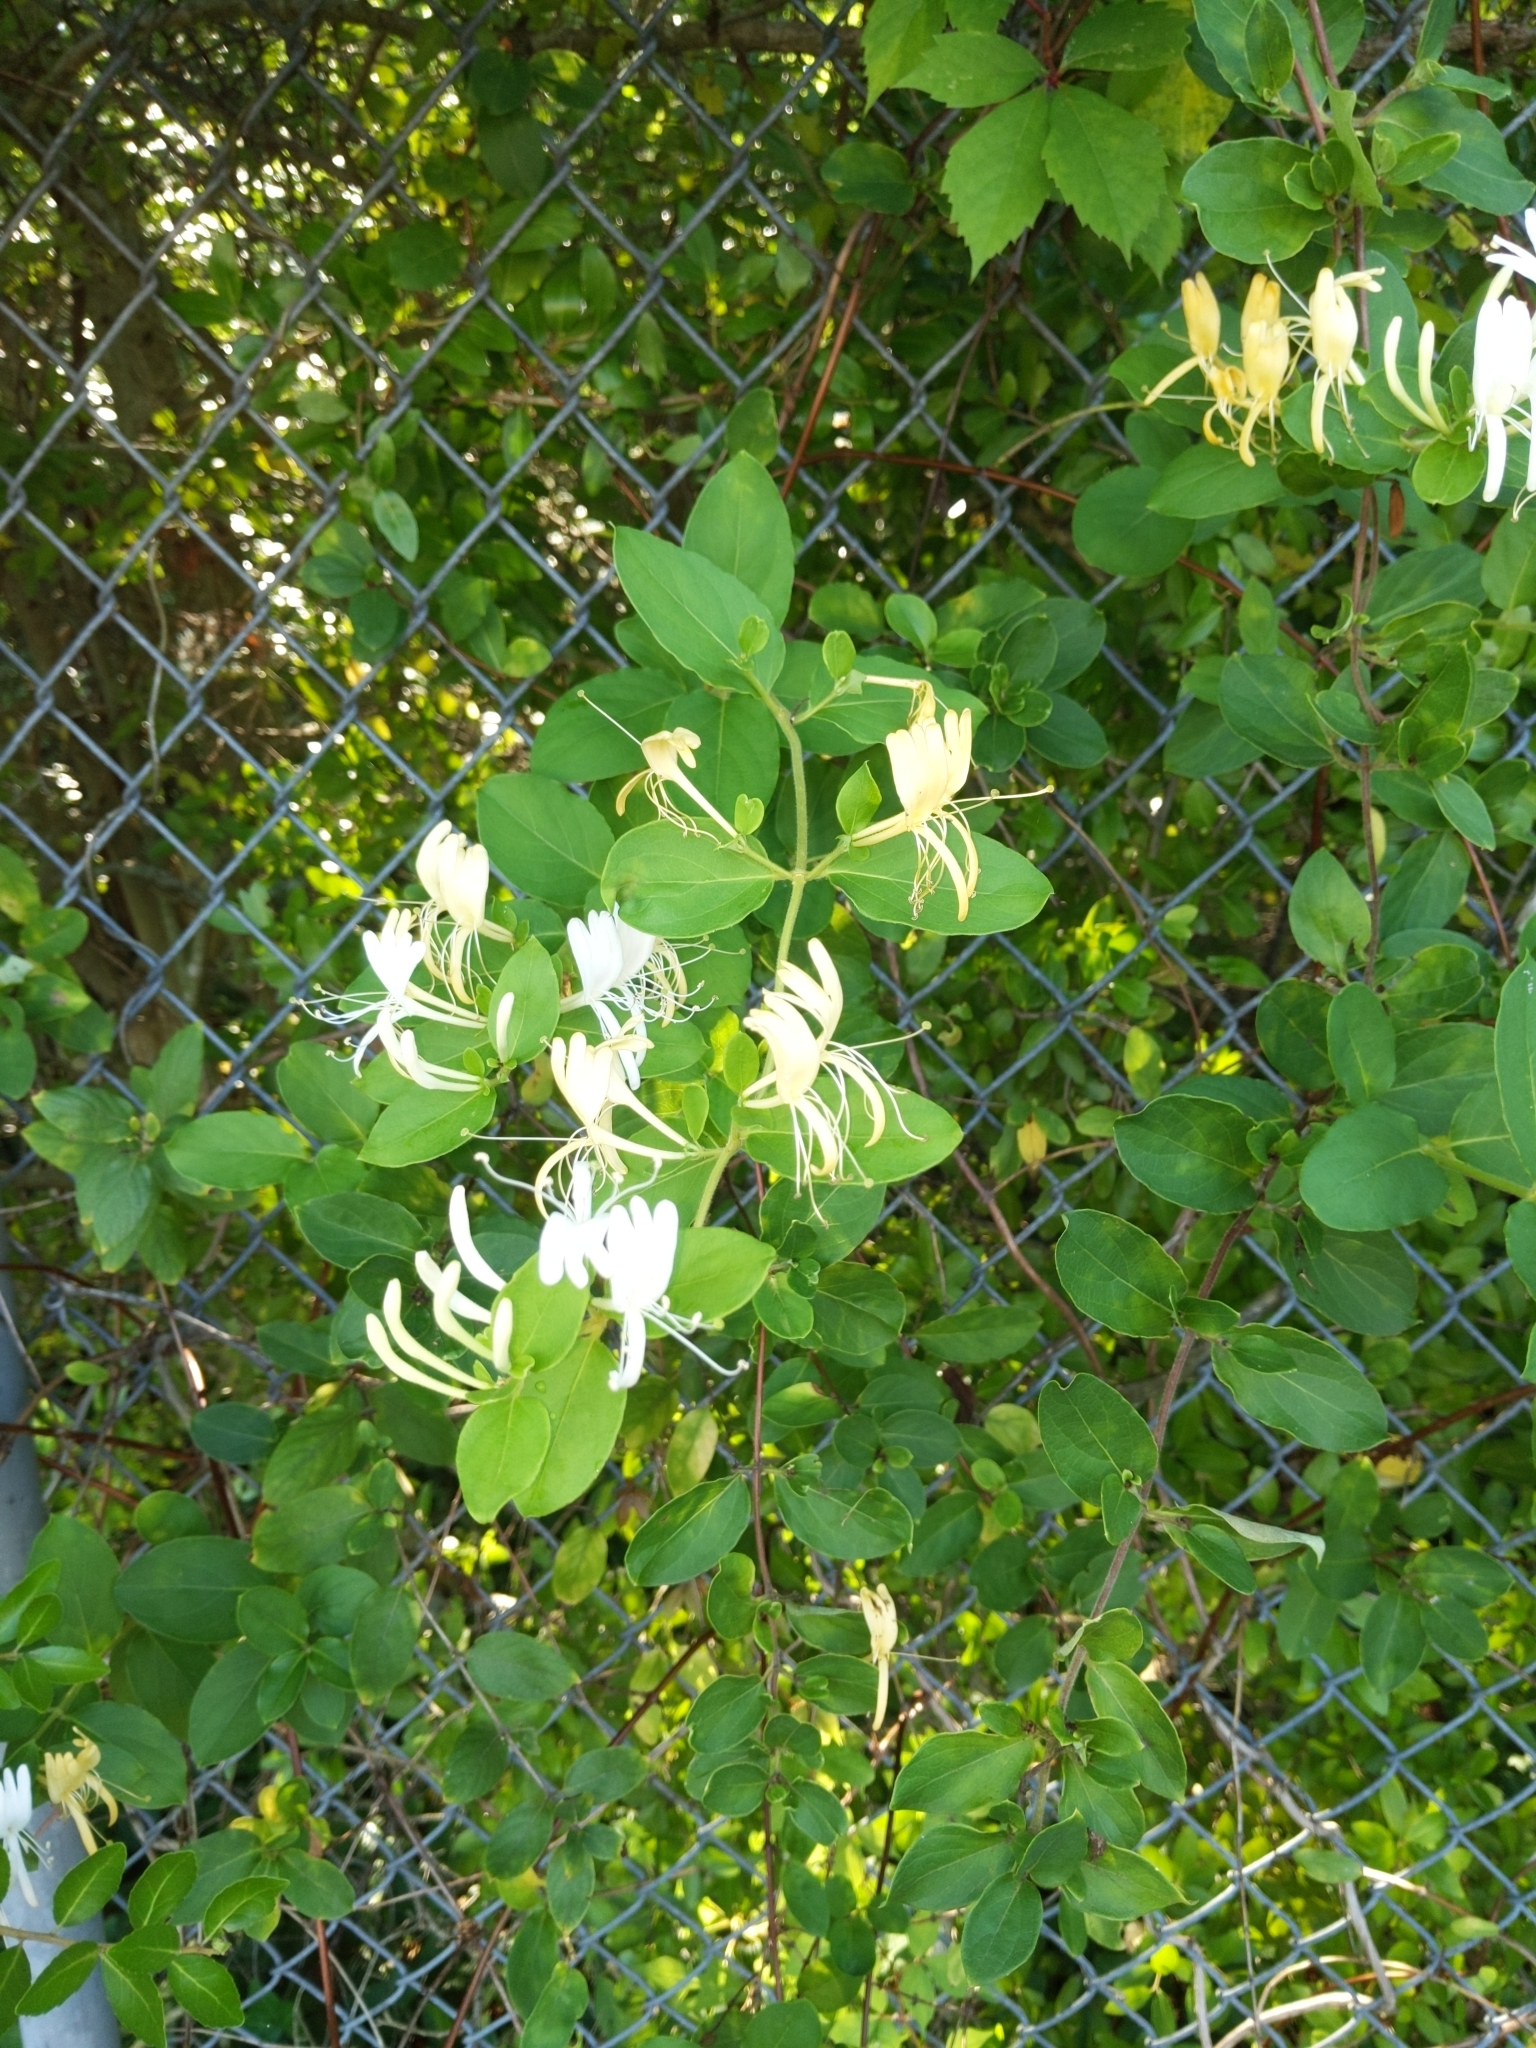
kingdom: Plantae
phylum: Tracheophyta
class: Magnoliopsida
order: Dipsacales
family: Caprifoliaceae
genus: Lonicera
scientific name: Lonicera japonica
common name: Japanese honeysuckle
